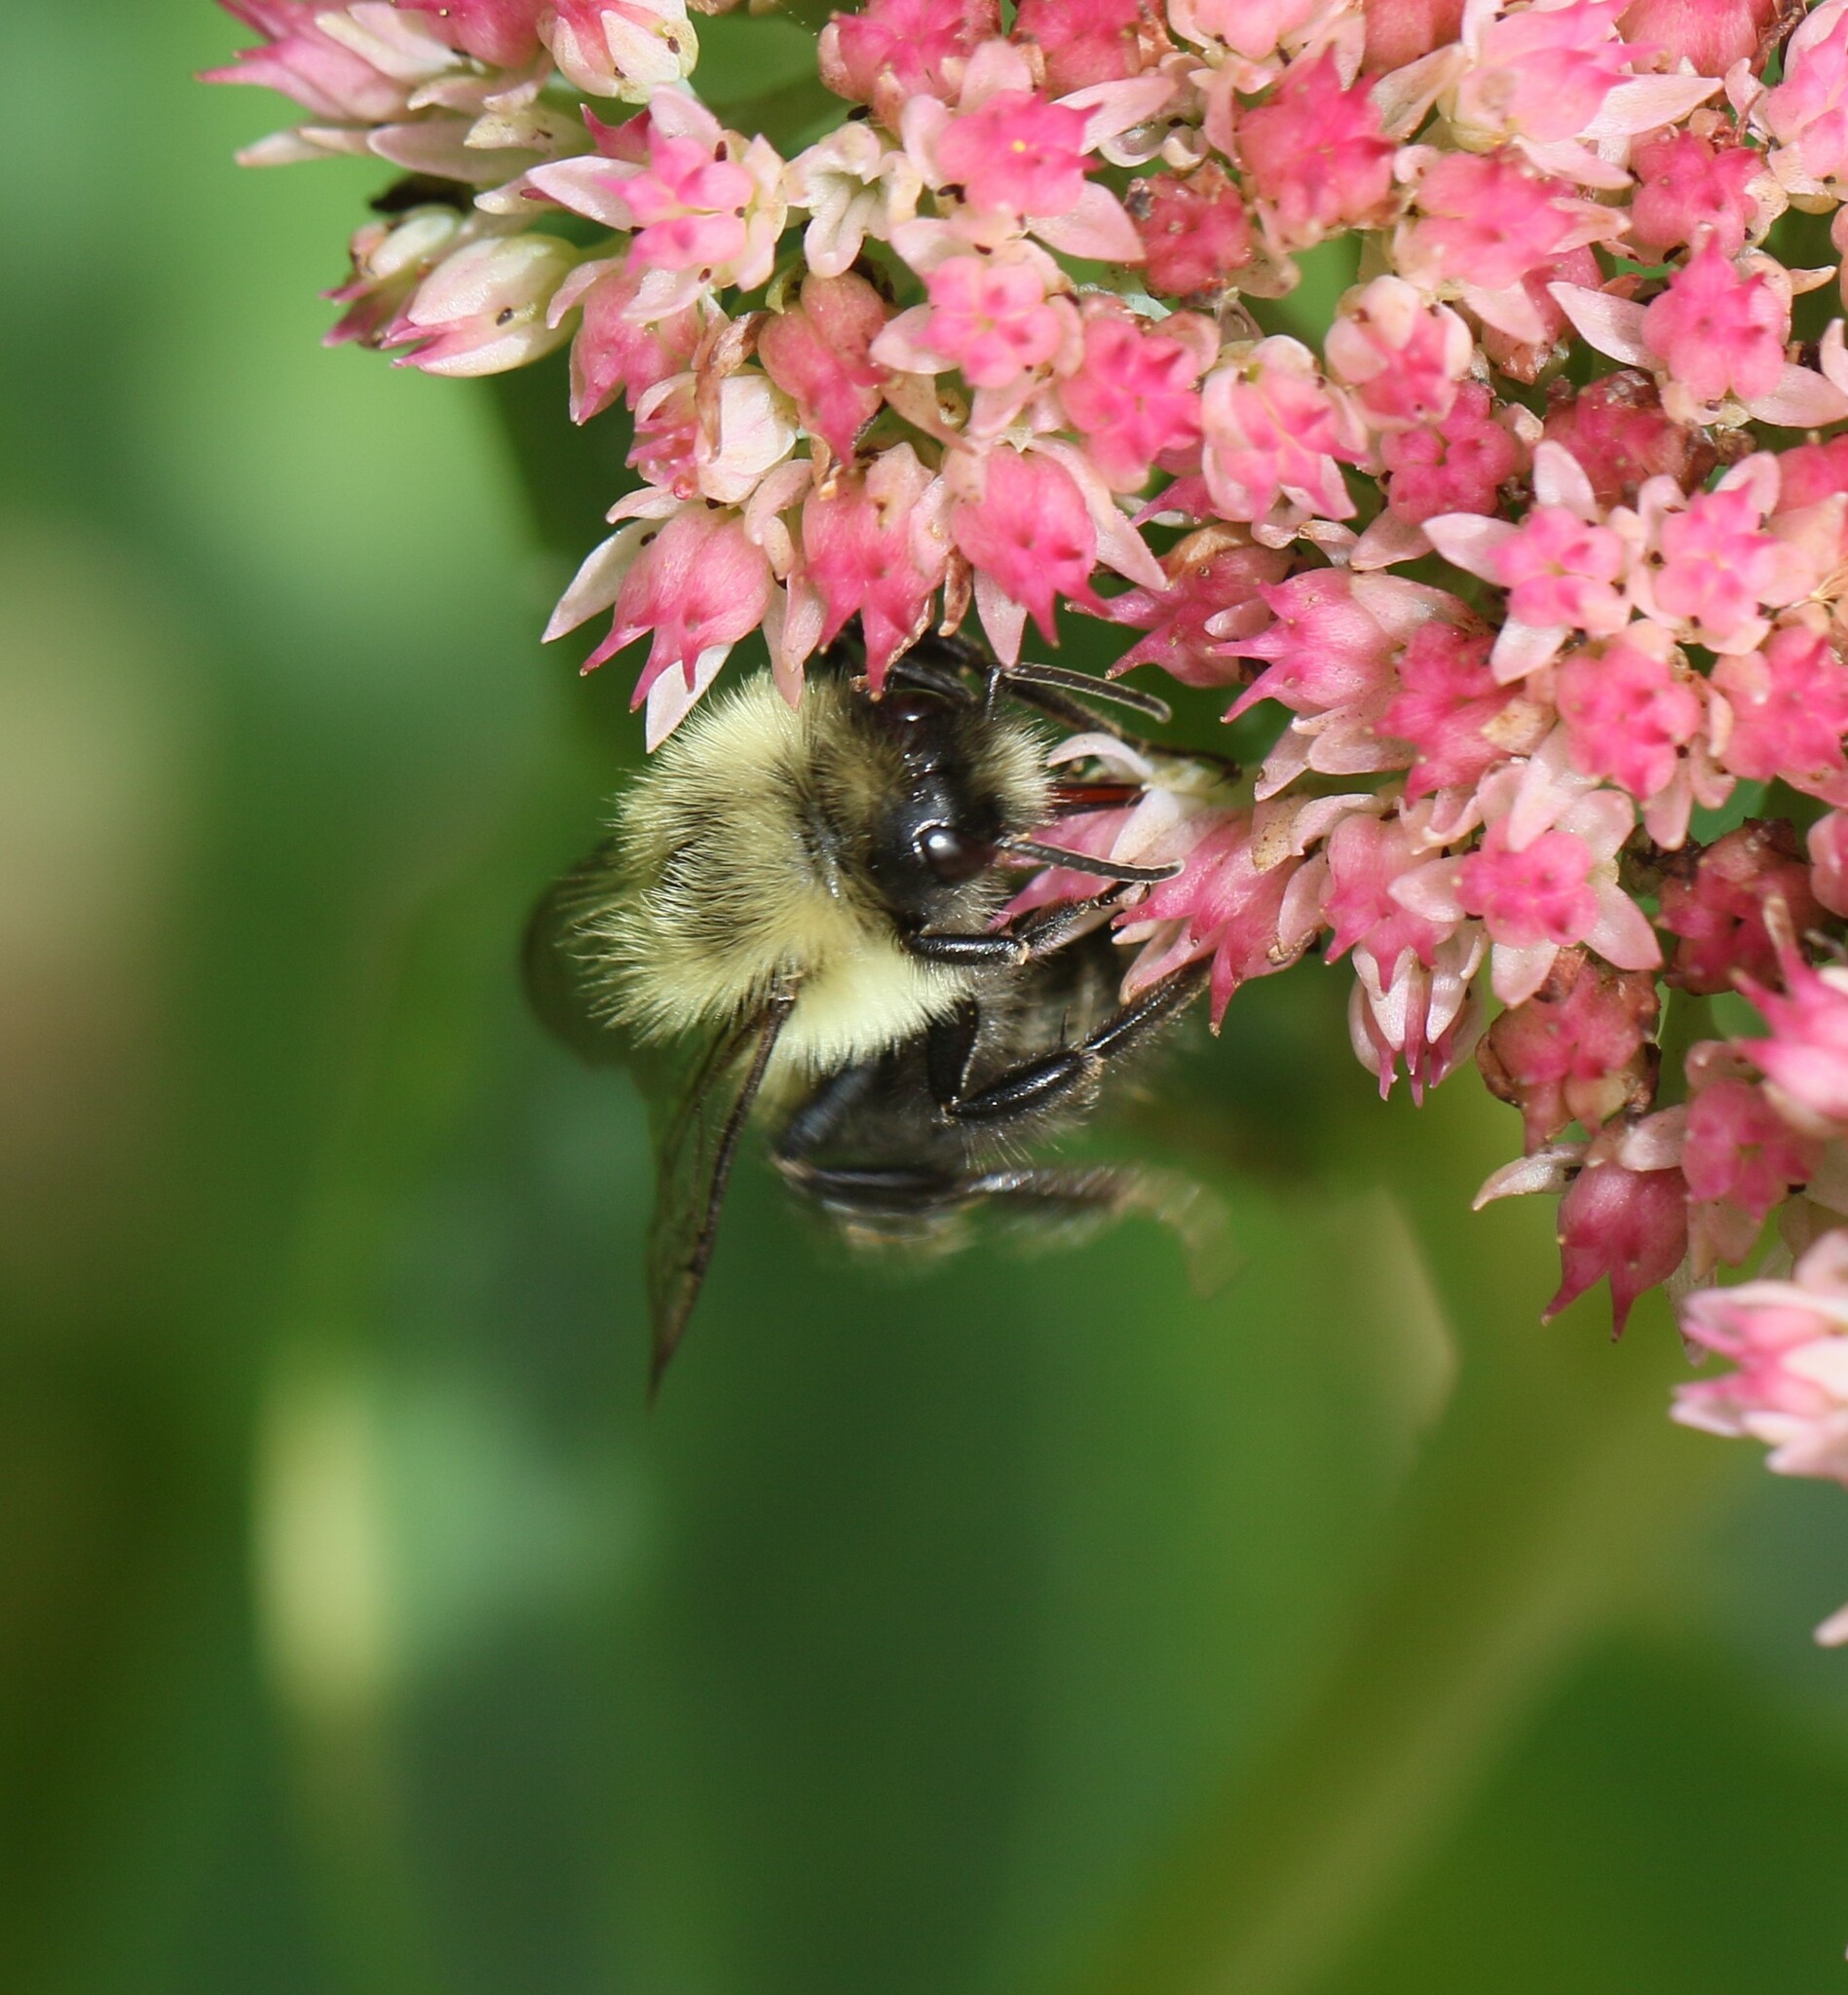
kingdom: Animalia
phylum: Arthropoda
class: Insecta
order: Hymenoptera
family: Apidae
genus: Bombus
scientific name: Bombus impatiens
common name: Common eastern bumble bee
